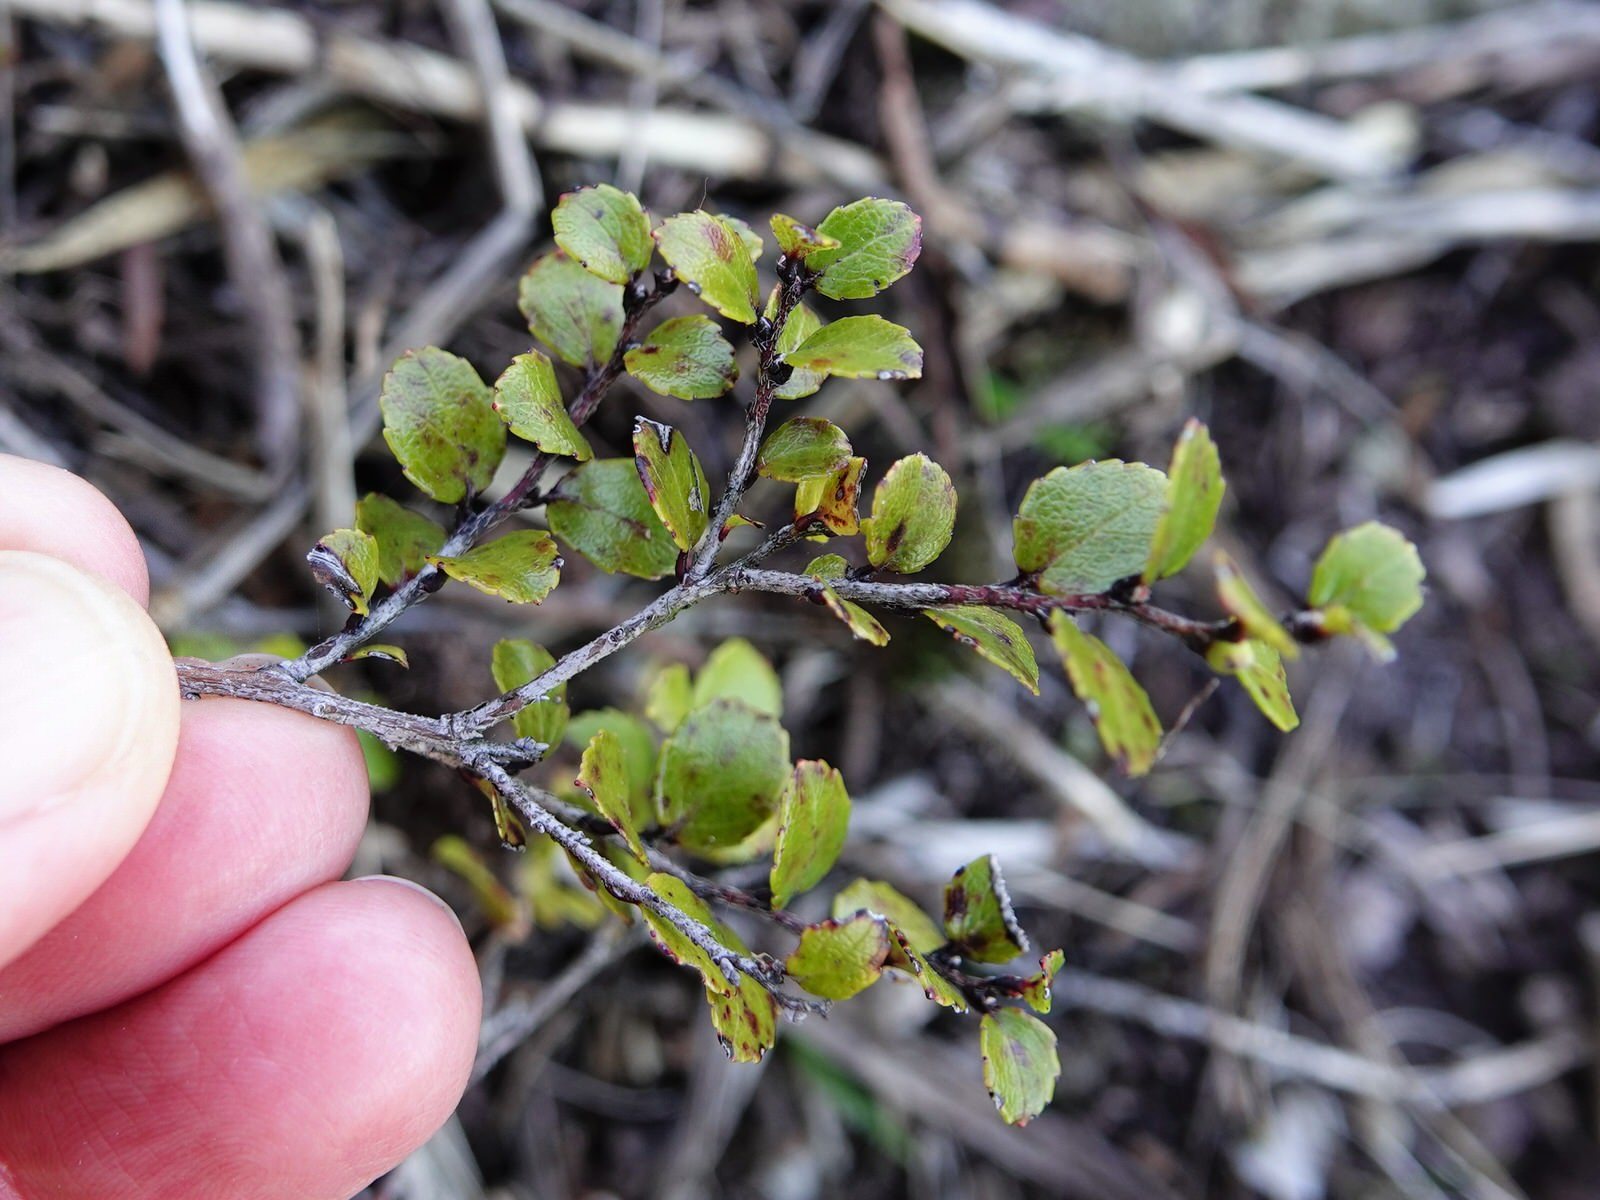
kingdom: Plantae
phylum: Tracheophyta
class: Magnoliopsida
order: Ericales
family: Ericaceae
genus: Gaultheria
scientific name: Gaultheria antipoda
